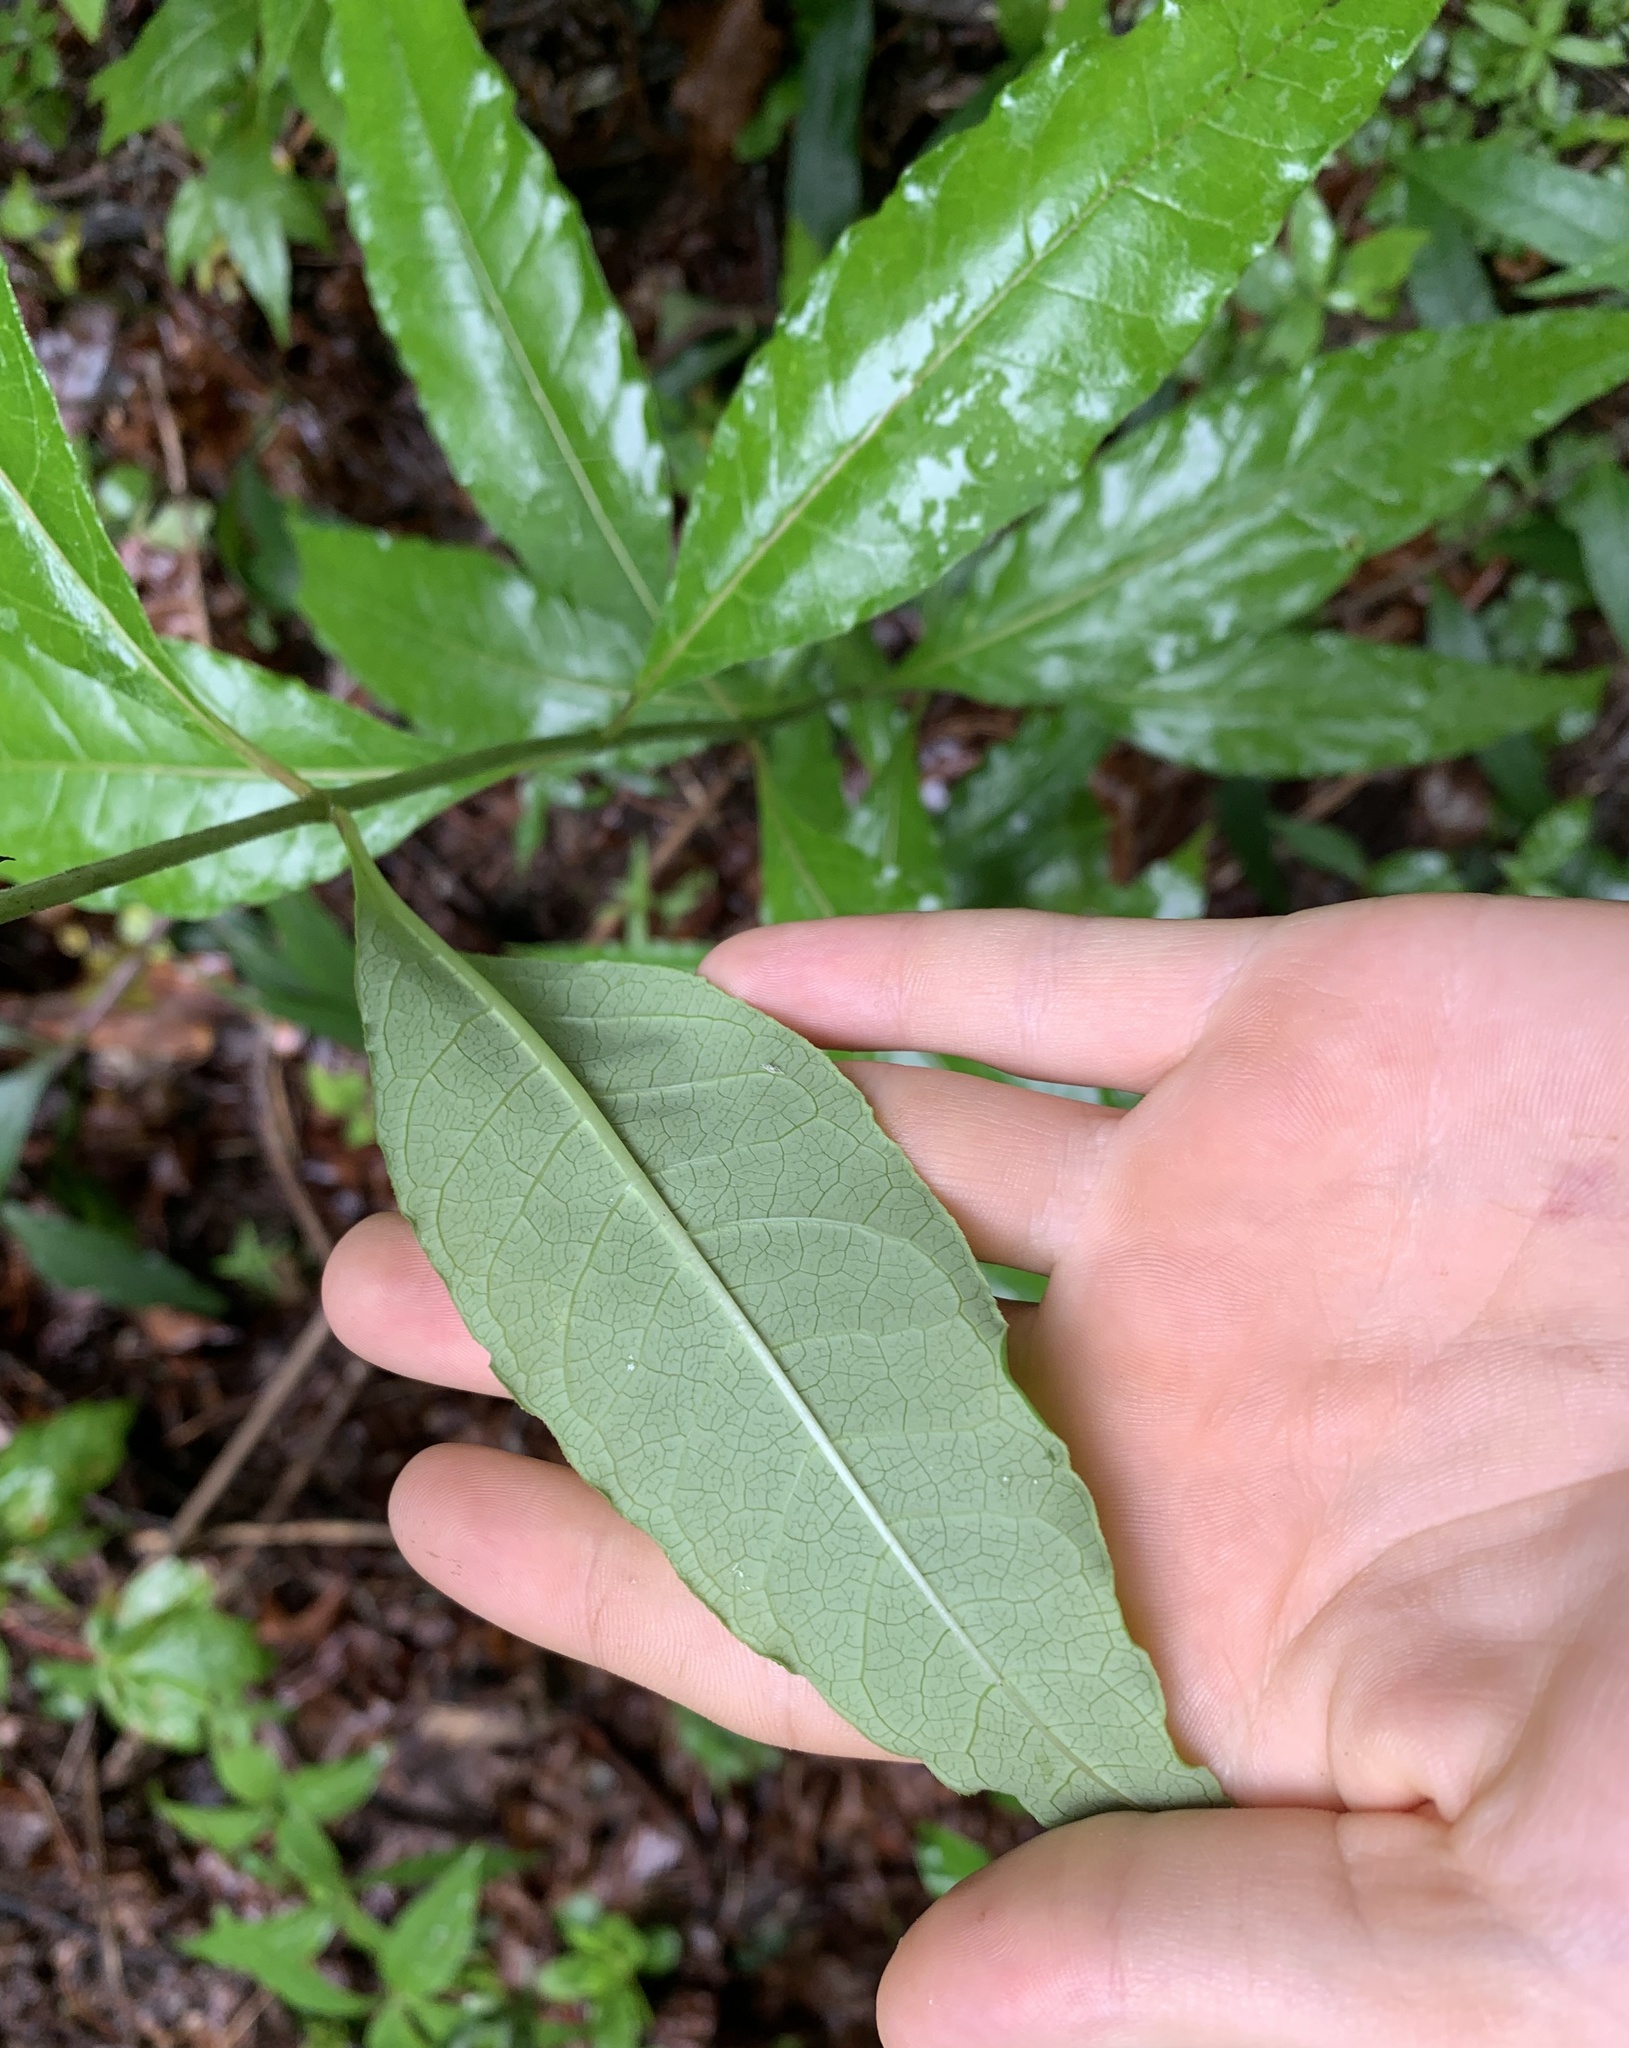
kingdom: Plantae
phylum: Tracheophyta
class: Magnoliopsida
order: Gentianales
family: Apocynaceae
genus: Asclepias
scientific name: Asclepias exaltata
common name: Poke milkweed
